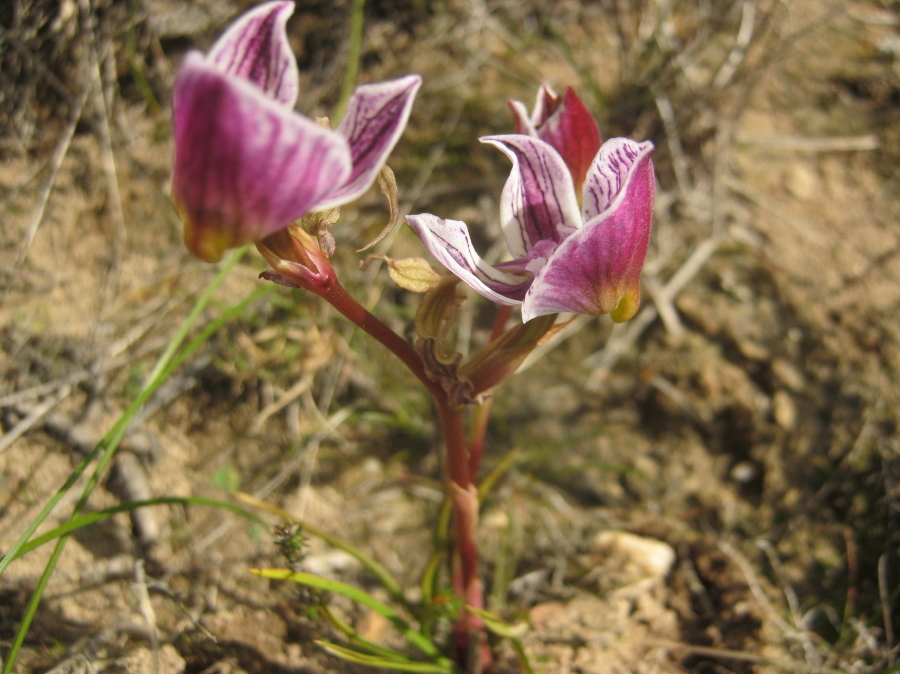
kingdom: Plantae
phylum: Tracheophyta
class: Liliopsida
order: Asparagales
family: Orchidaceae
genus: Disa
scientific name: Disa spathulata
